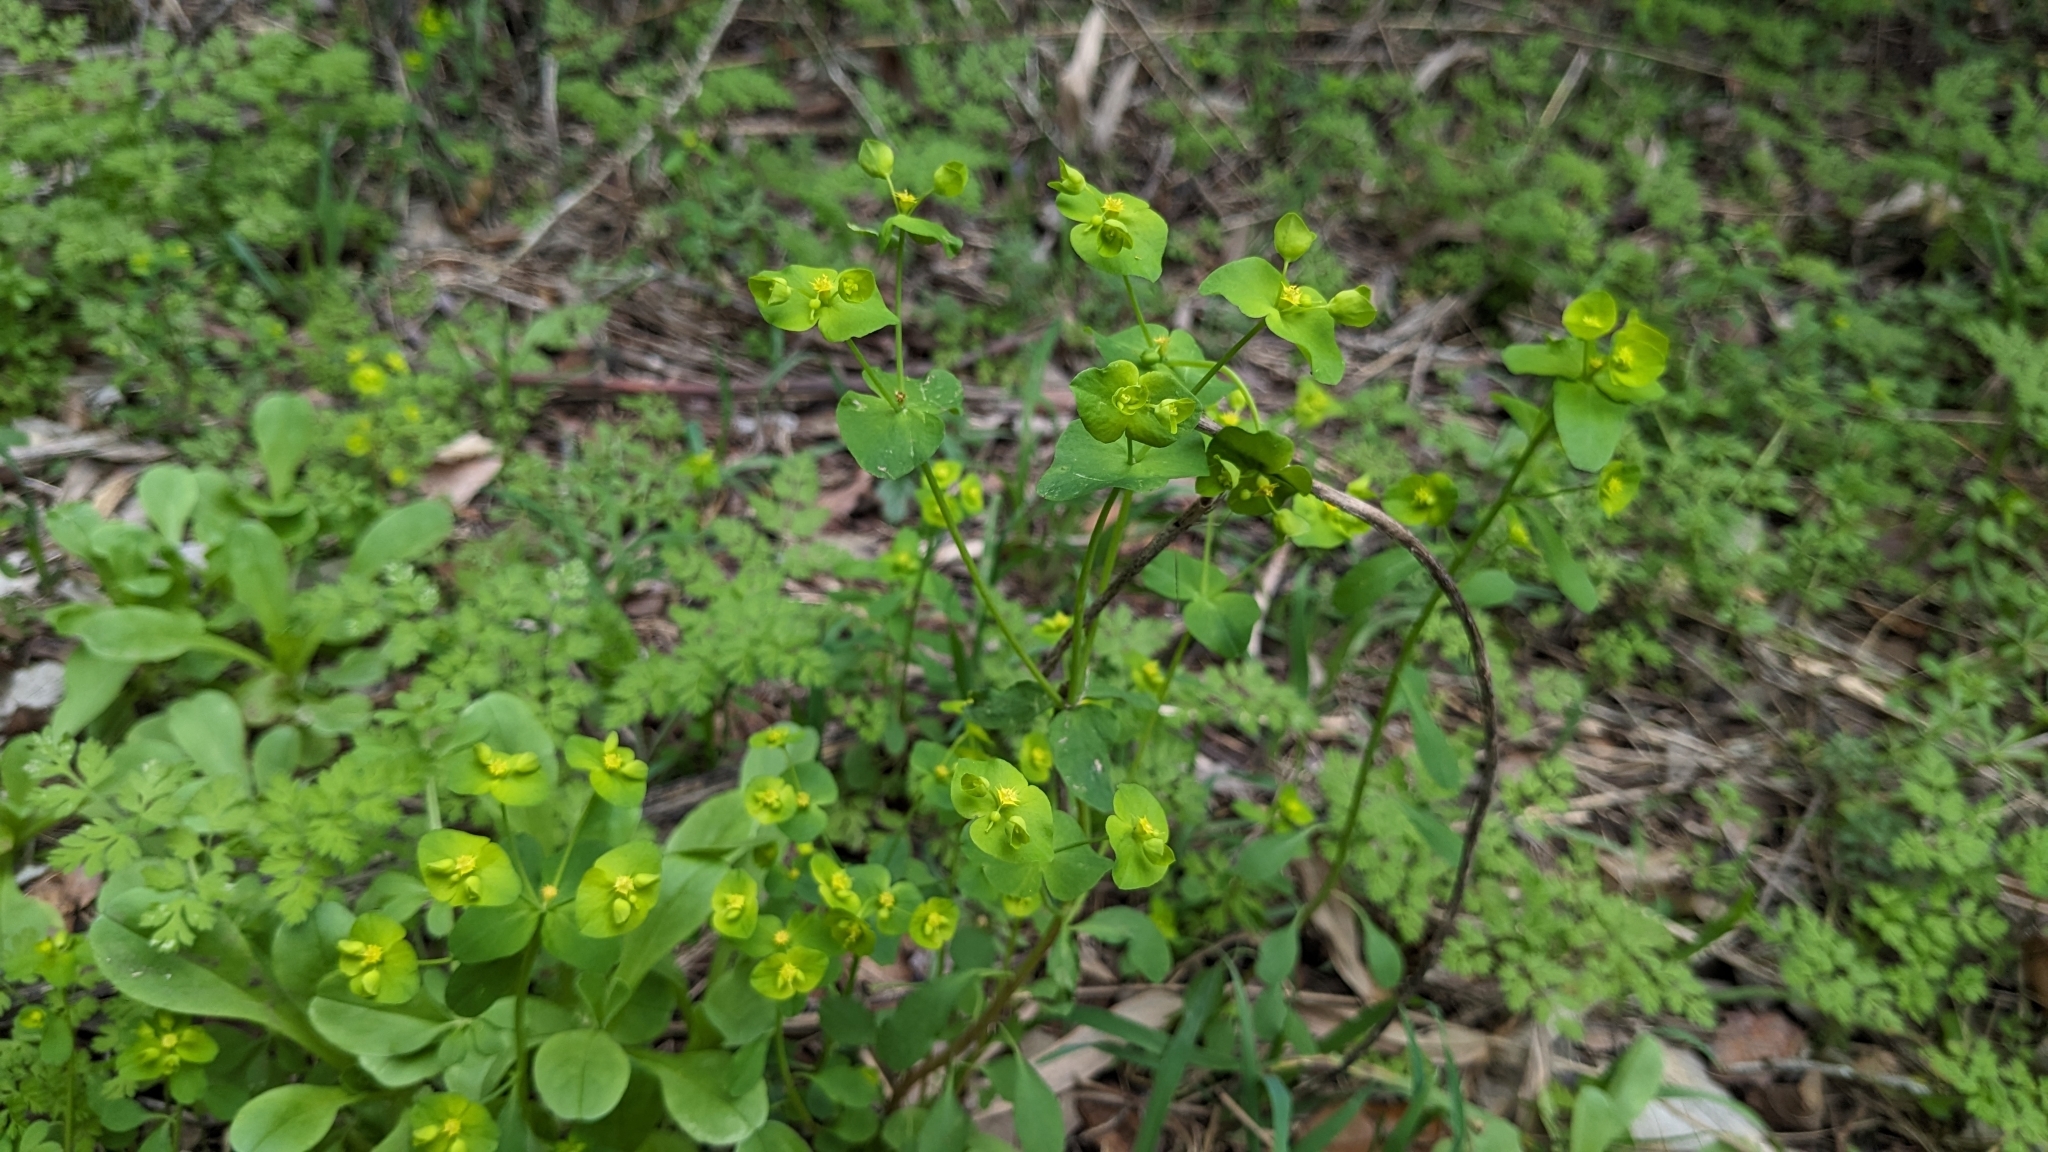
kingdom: Plantae
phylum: Tracheophyta
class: Magnoliopsida
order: Malpighiales
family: Euphorbiaceae
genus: Euphorbia
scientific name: Euphorbia roemeriana
